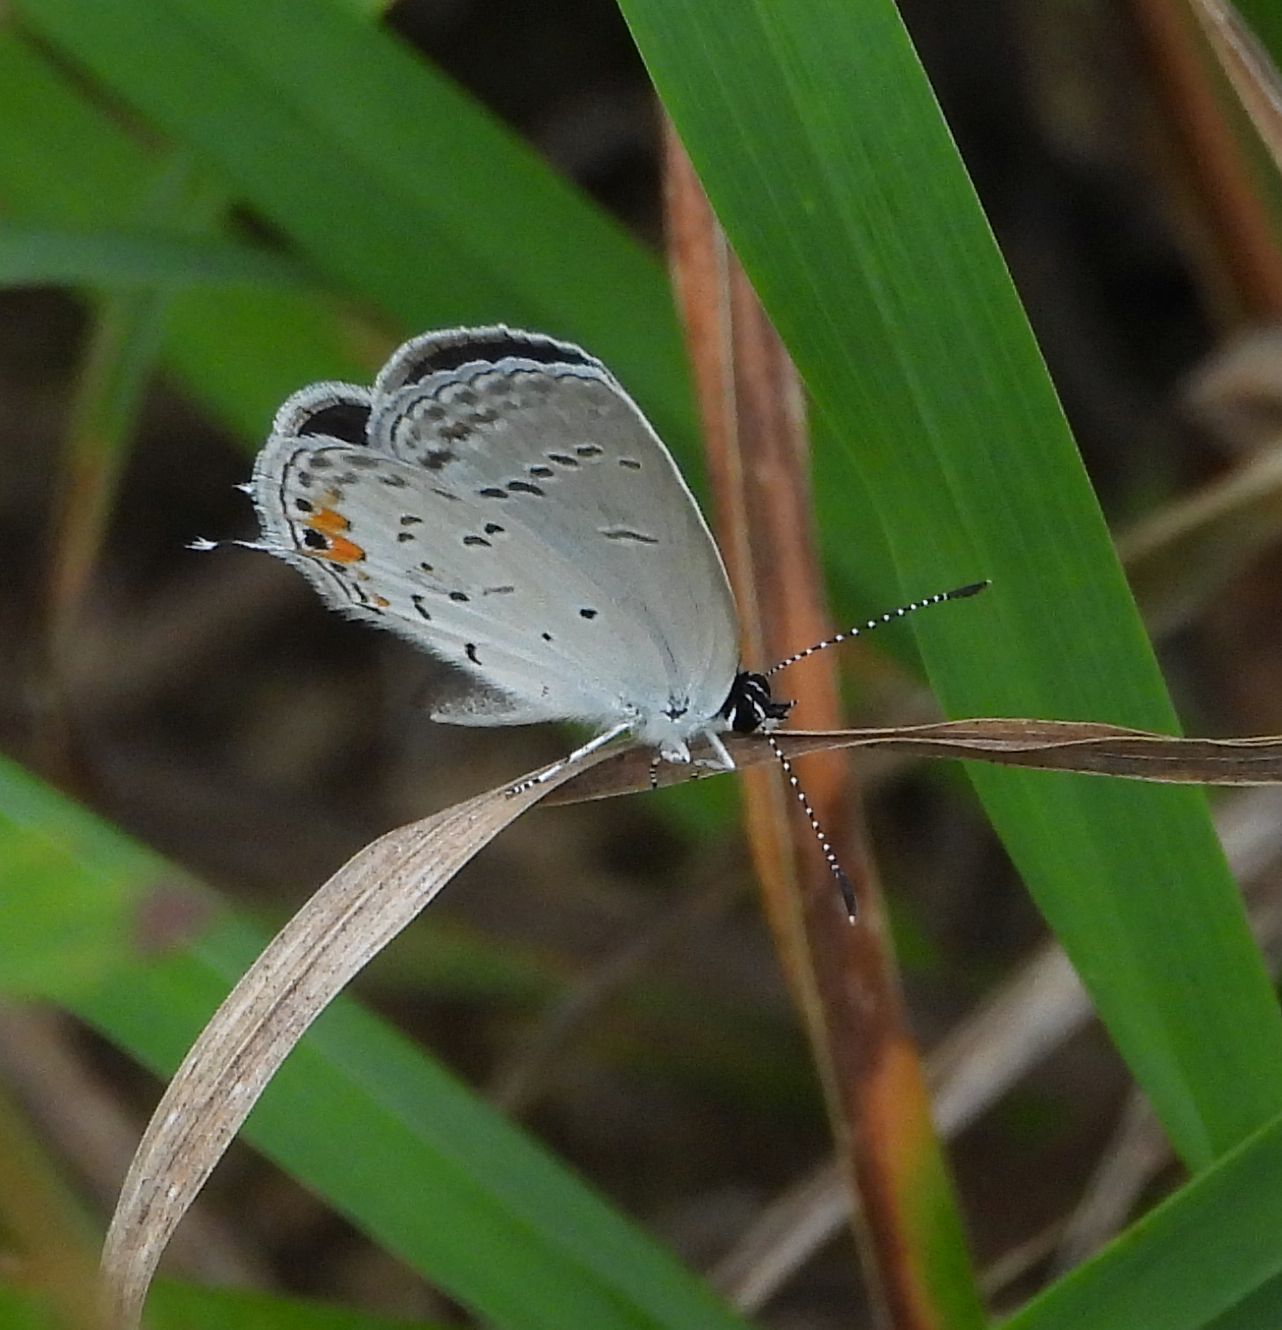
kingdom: Animalia
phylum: Arthropoda
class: Insecta
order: Lepidoptera
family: Lycaenidae
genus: Elkalyce
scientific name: Elkalyce comyntas
